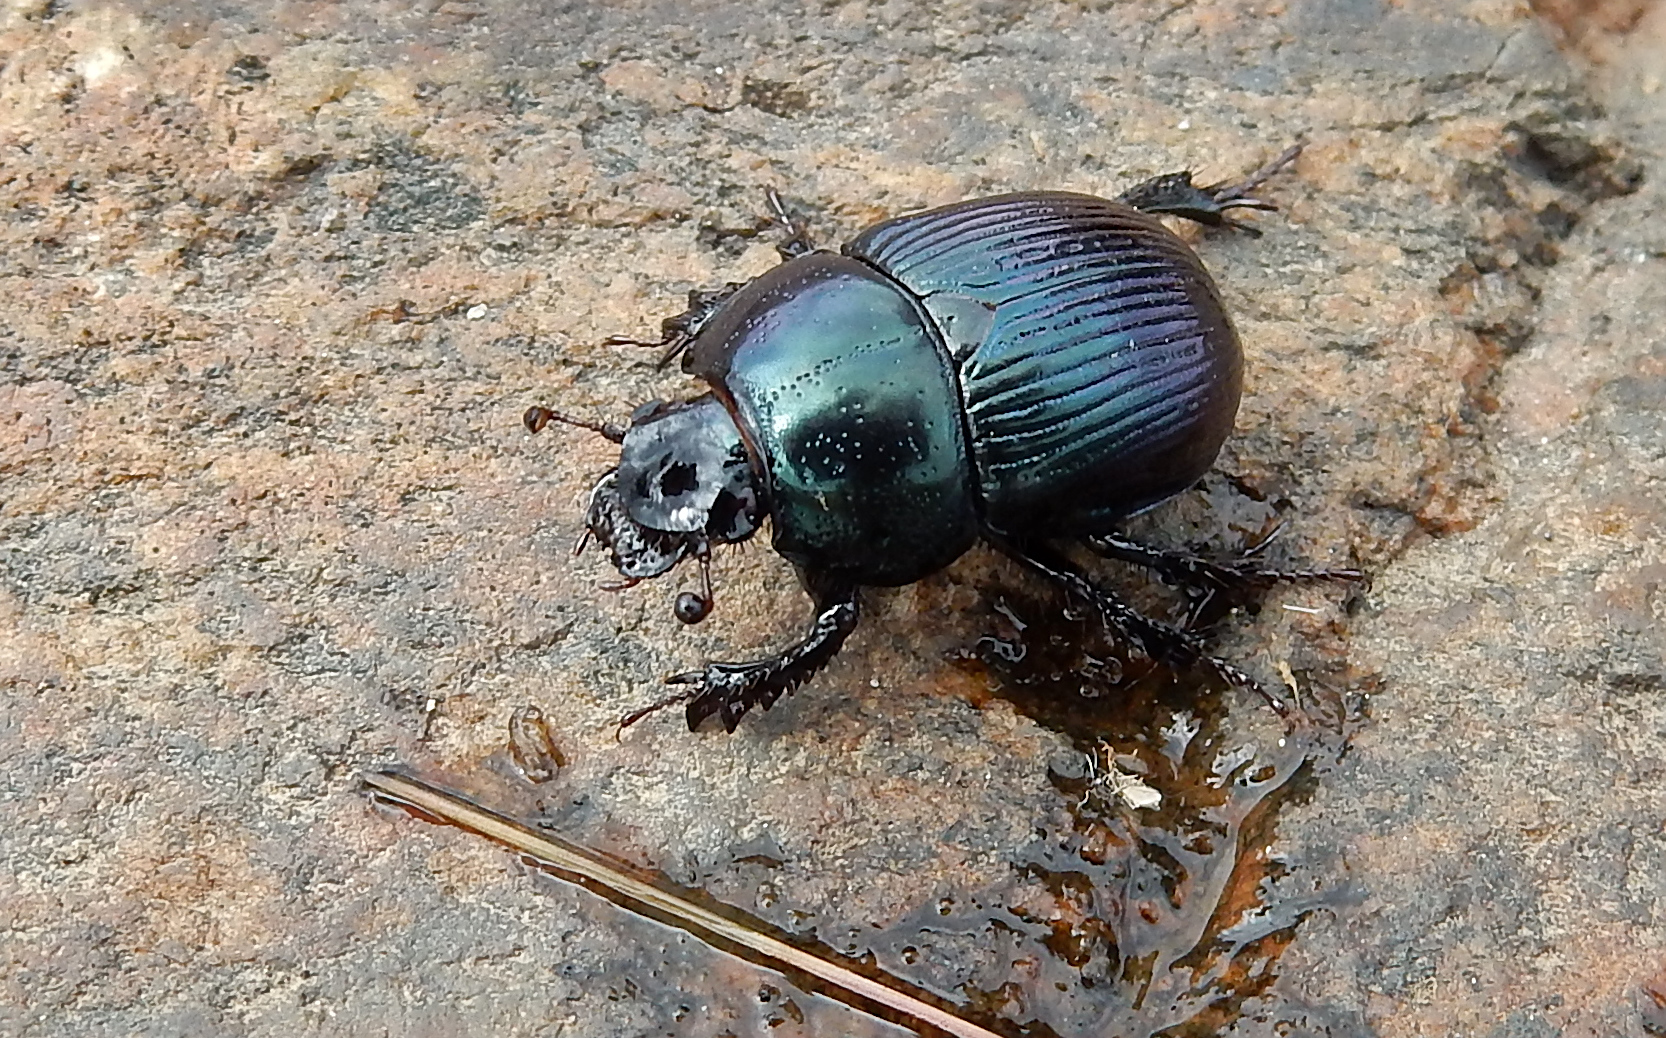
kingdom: Animalia
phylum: Arthropoda
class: Insecta
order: Coleoptera
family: Geotrupidae
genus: Anoplotrupes
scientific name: Anoplotrupes balyi
